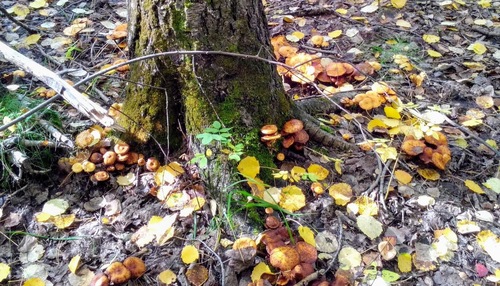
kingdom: Fungi
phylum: Basidiomycota
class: Agaricomycetes
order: Agaricales
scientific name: Agaricales
